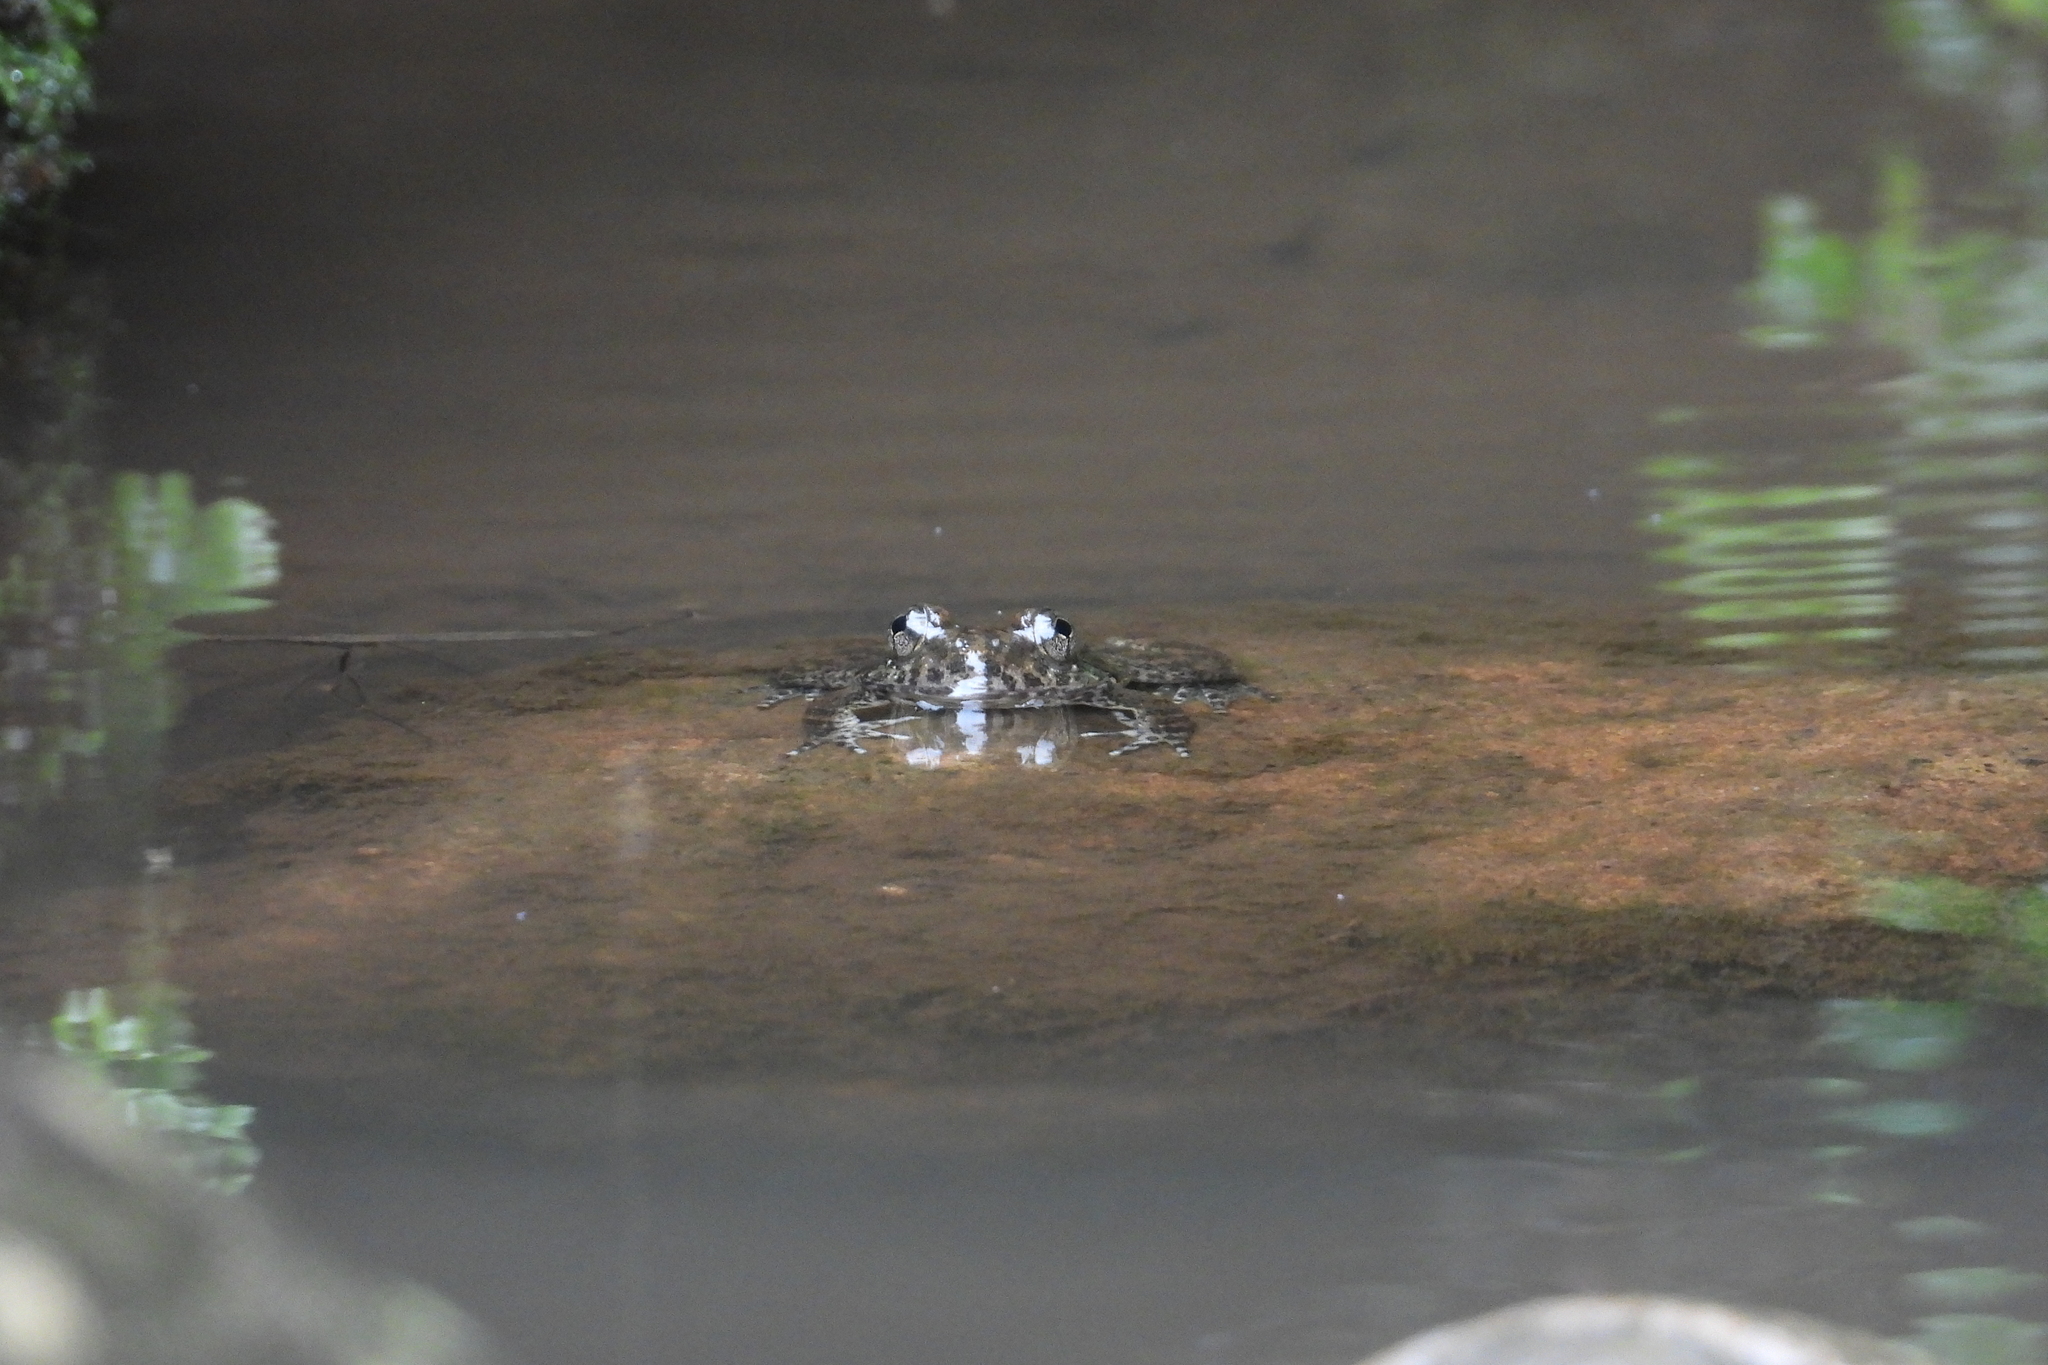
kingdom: Animalia
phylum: Chordata
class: Amphibia
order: Anura
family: Dicroglossidae
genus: Limnonectes
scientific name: Limnonectes kuhlii
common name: Kuhl’s stream frog/large-headed frog
